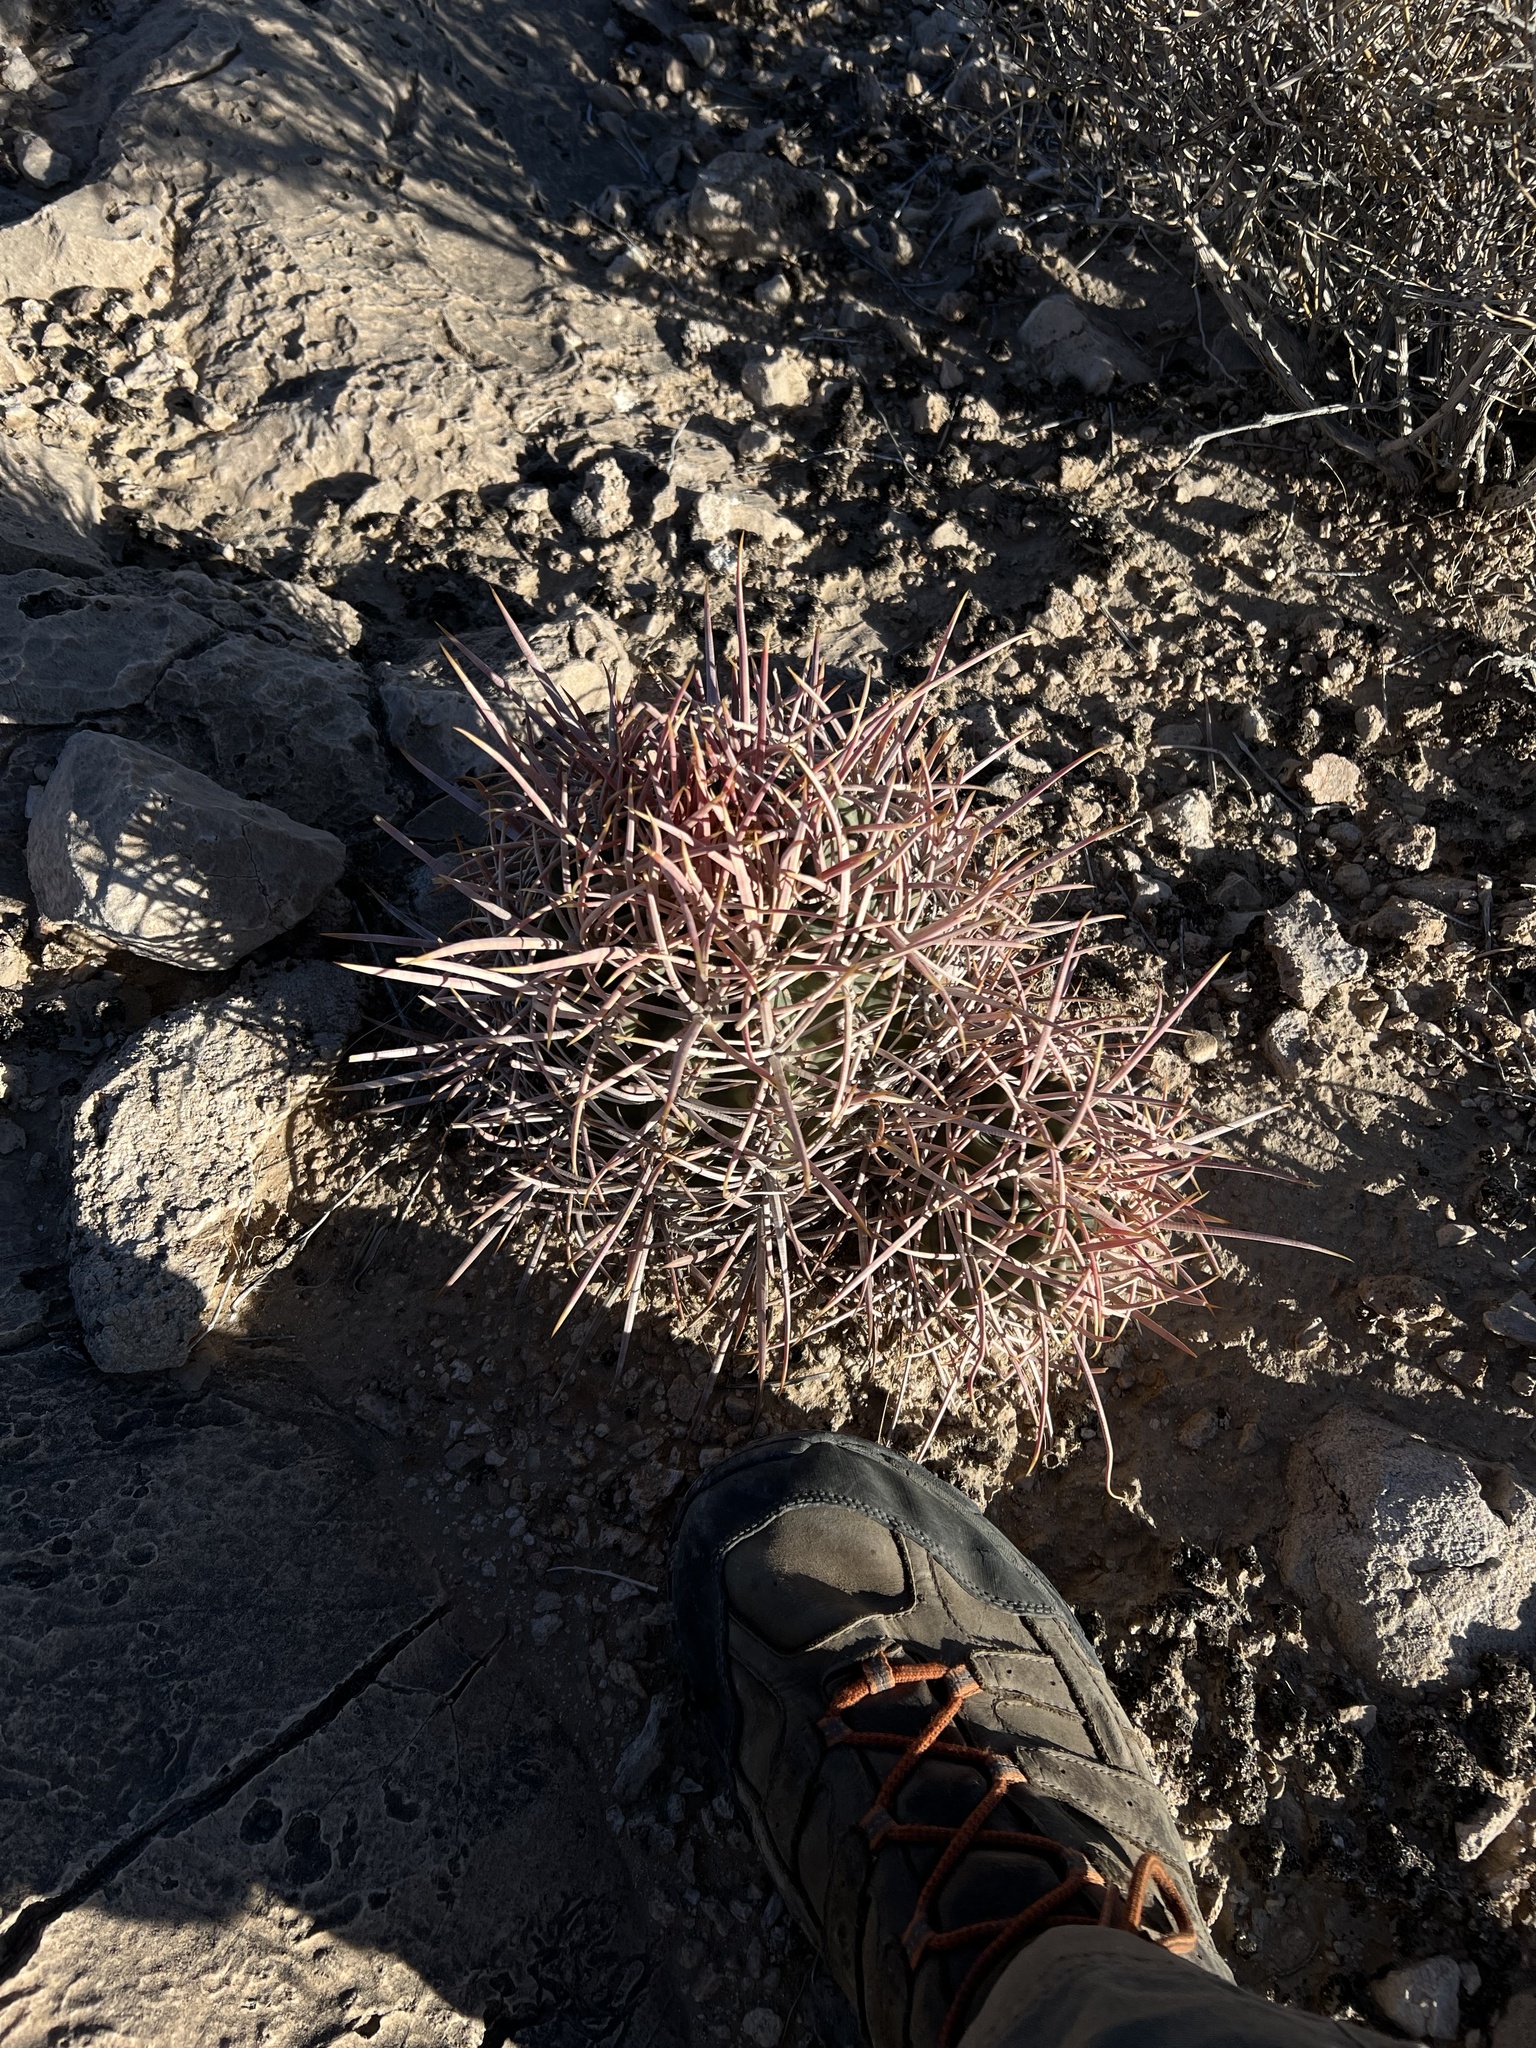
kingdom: Plantae
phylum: Tracheophyta
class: Magnoliopsida
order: Caryophyllales
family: Cactaceae
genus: Echinocactus
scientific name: Echinocactus polycephalus
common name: Cottontop cactus
